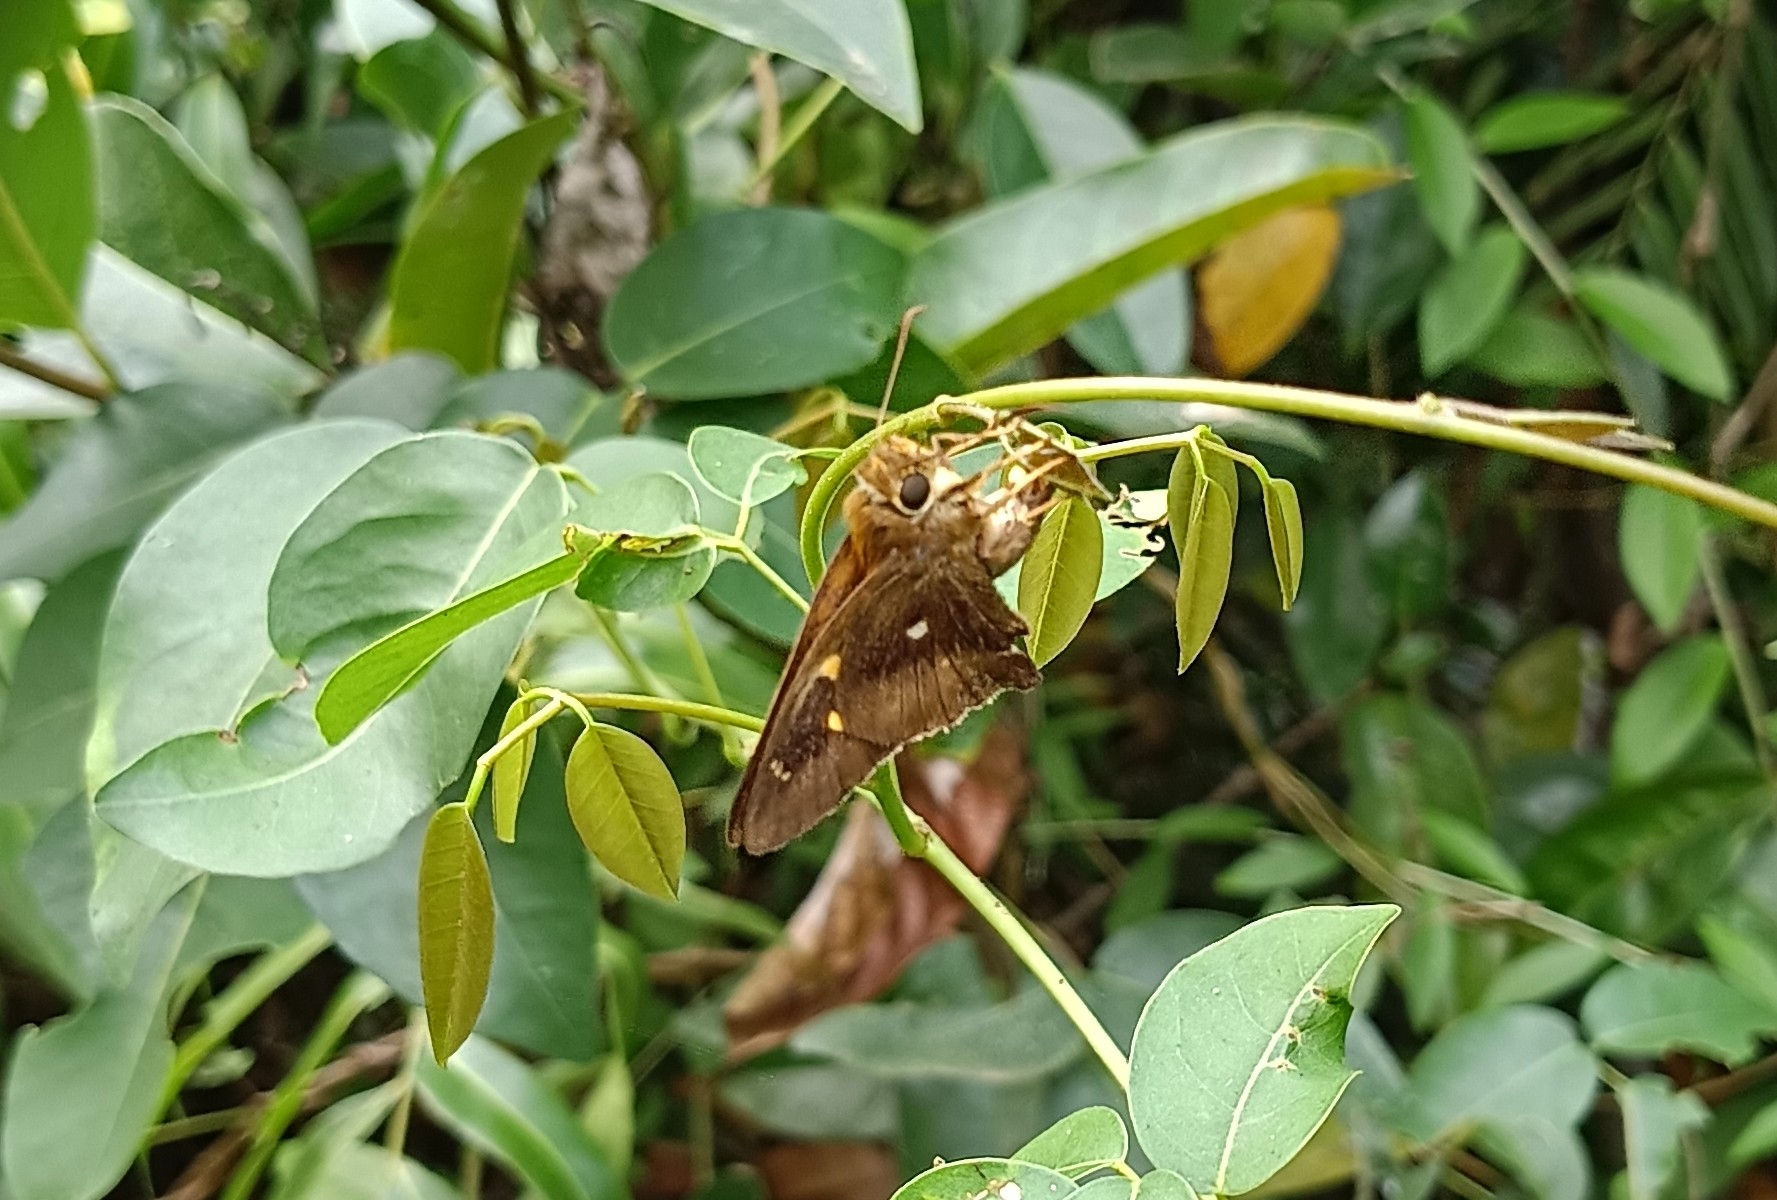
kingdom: Animalia
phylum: Arthropoda
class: Insecta
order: Lepidoptera
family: Hesperiidae
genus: Hasora
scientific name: Hasora badra
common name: Common awl
